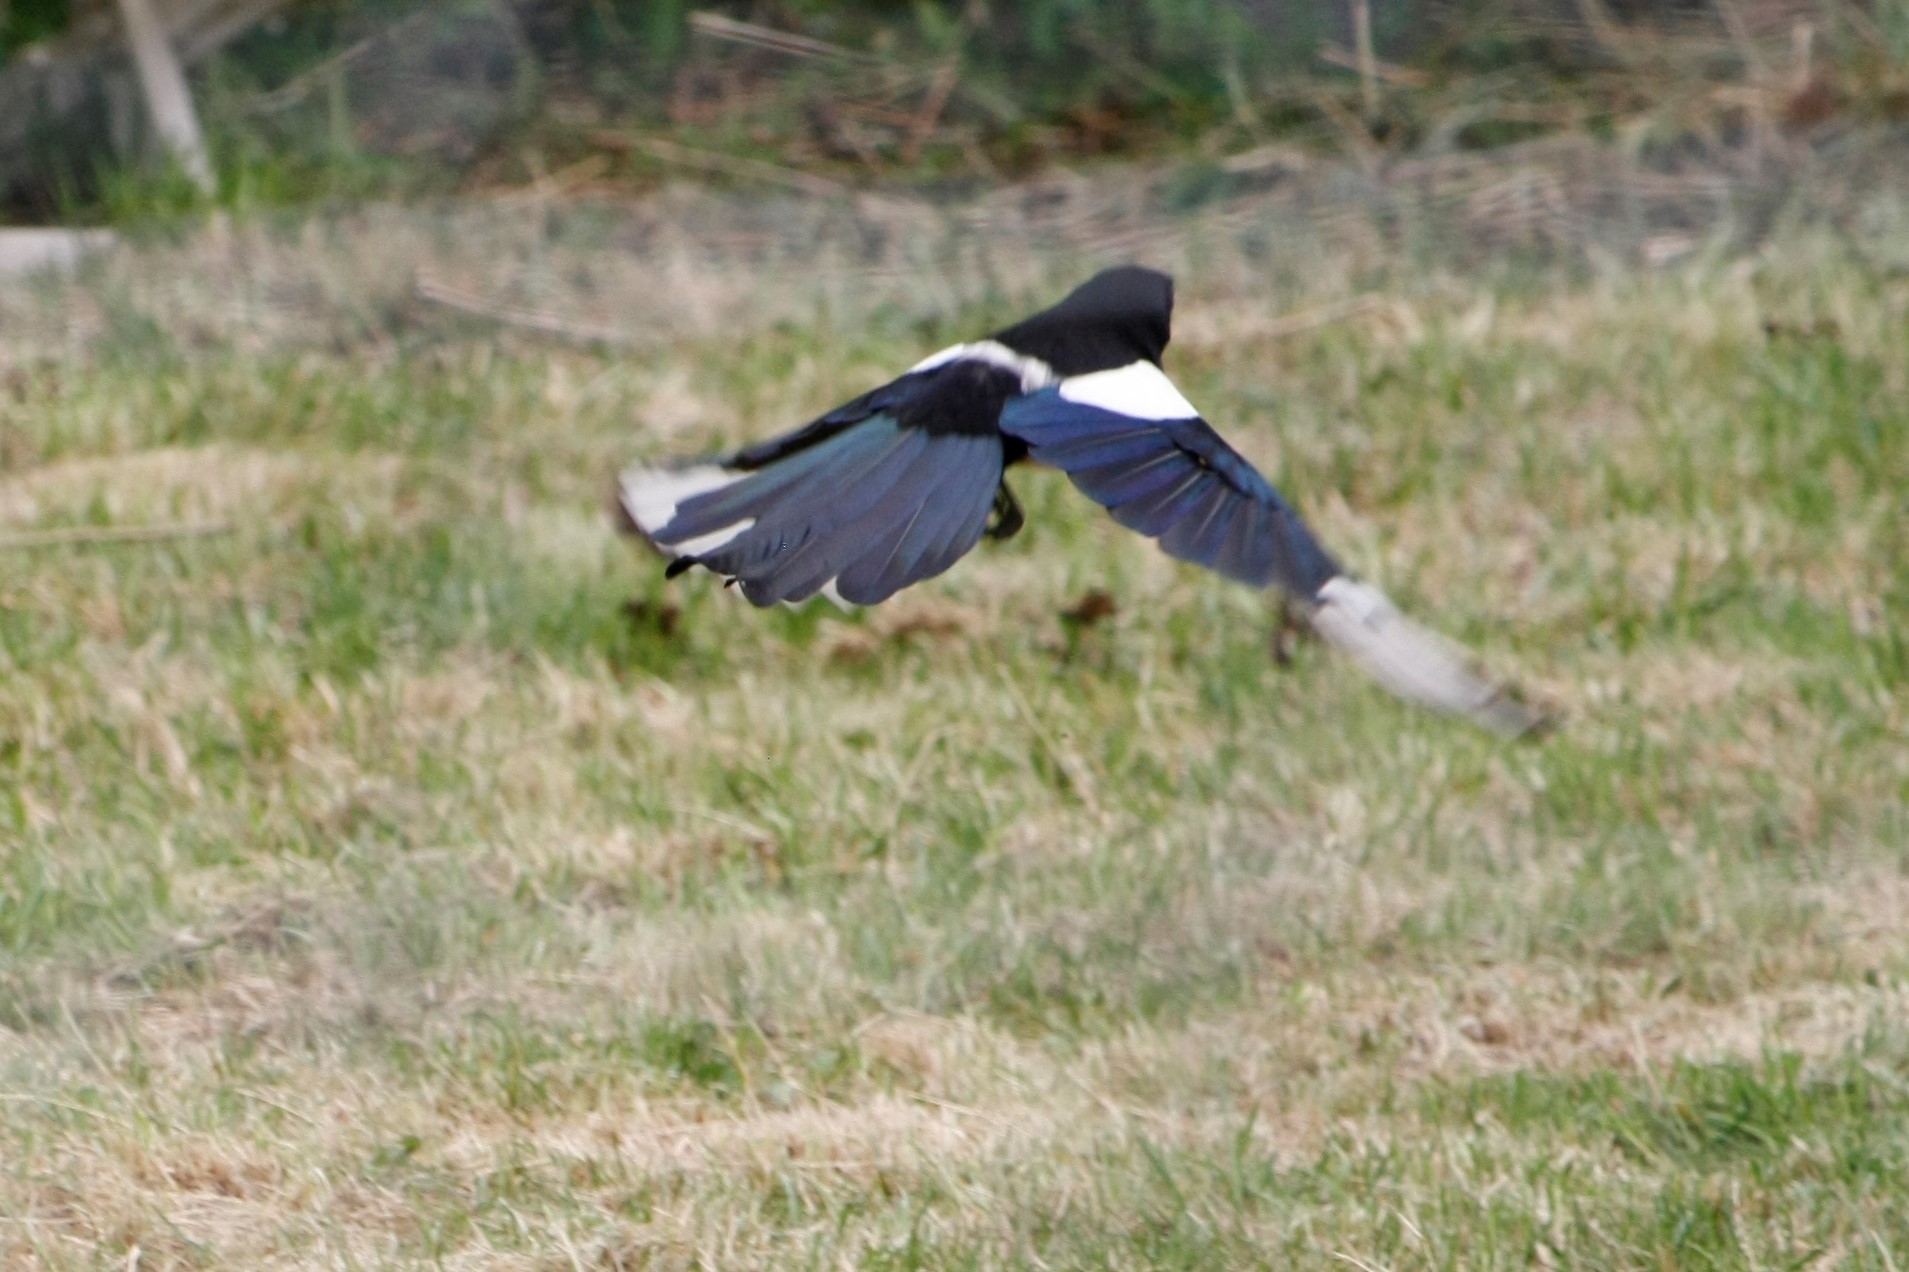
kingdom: Animalia
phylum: Chordata
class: Aves
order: Passeriformes
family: Corvidae
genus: Pica
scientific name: Pica pica
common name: Eurasian magpie
